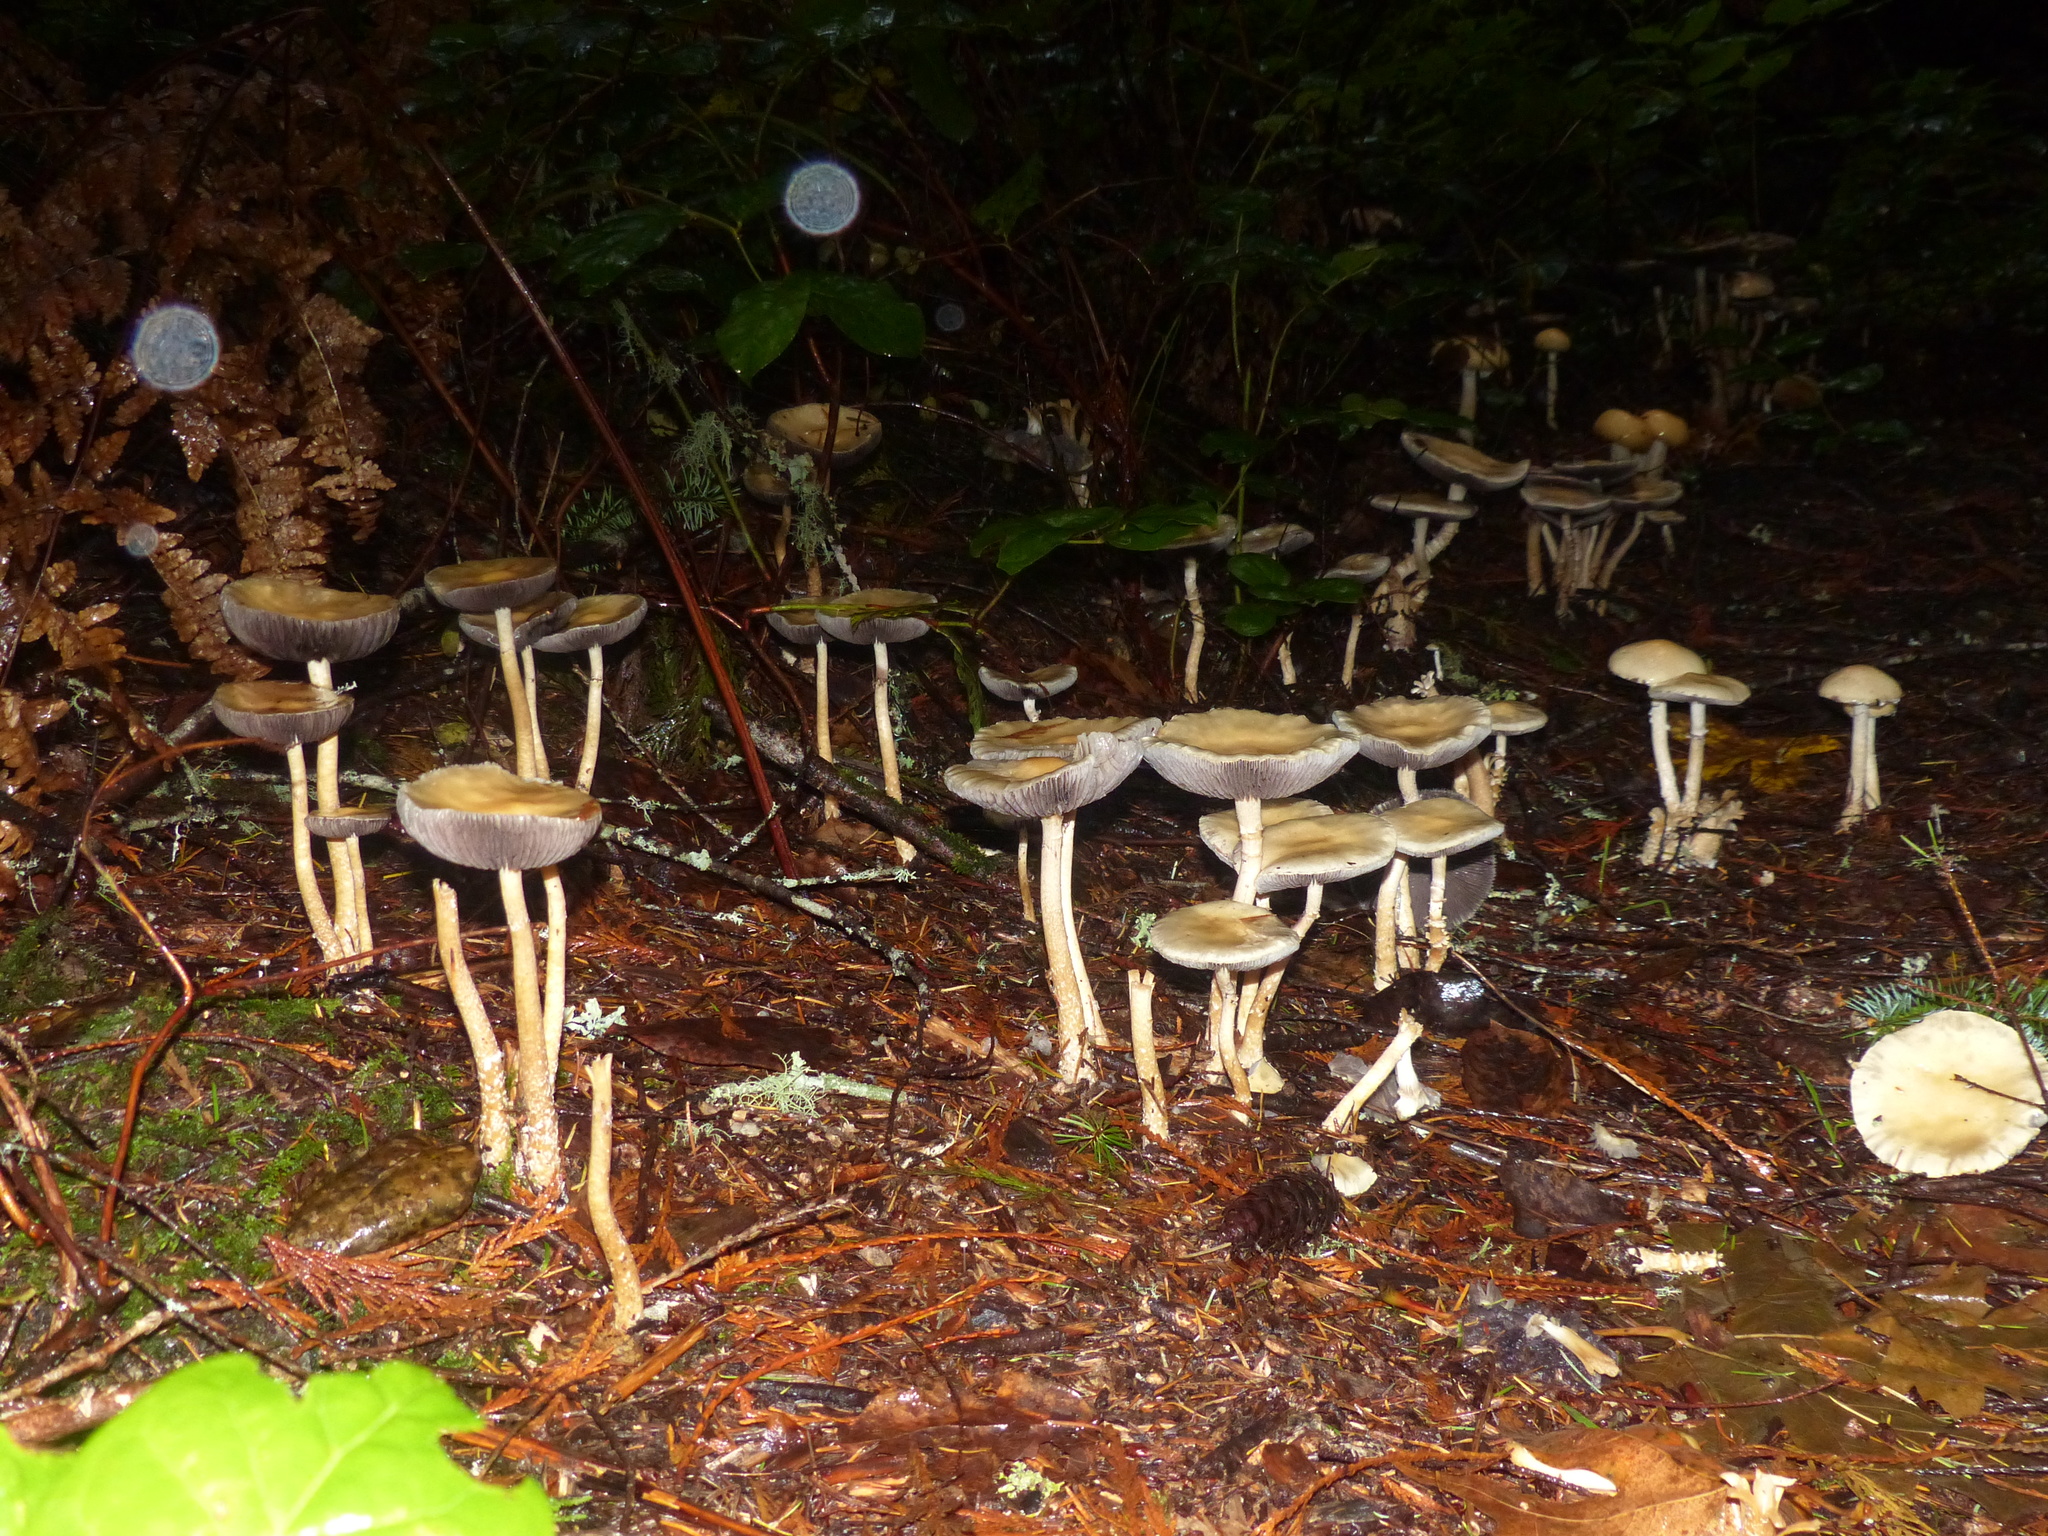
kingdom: Fungi
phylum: Basidiomycota
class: Agaricomycetes
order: Agaricales
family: Strophariaceae
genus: Stropharia
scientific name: Stropharia ambigua
